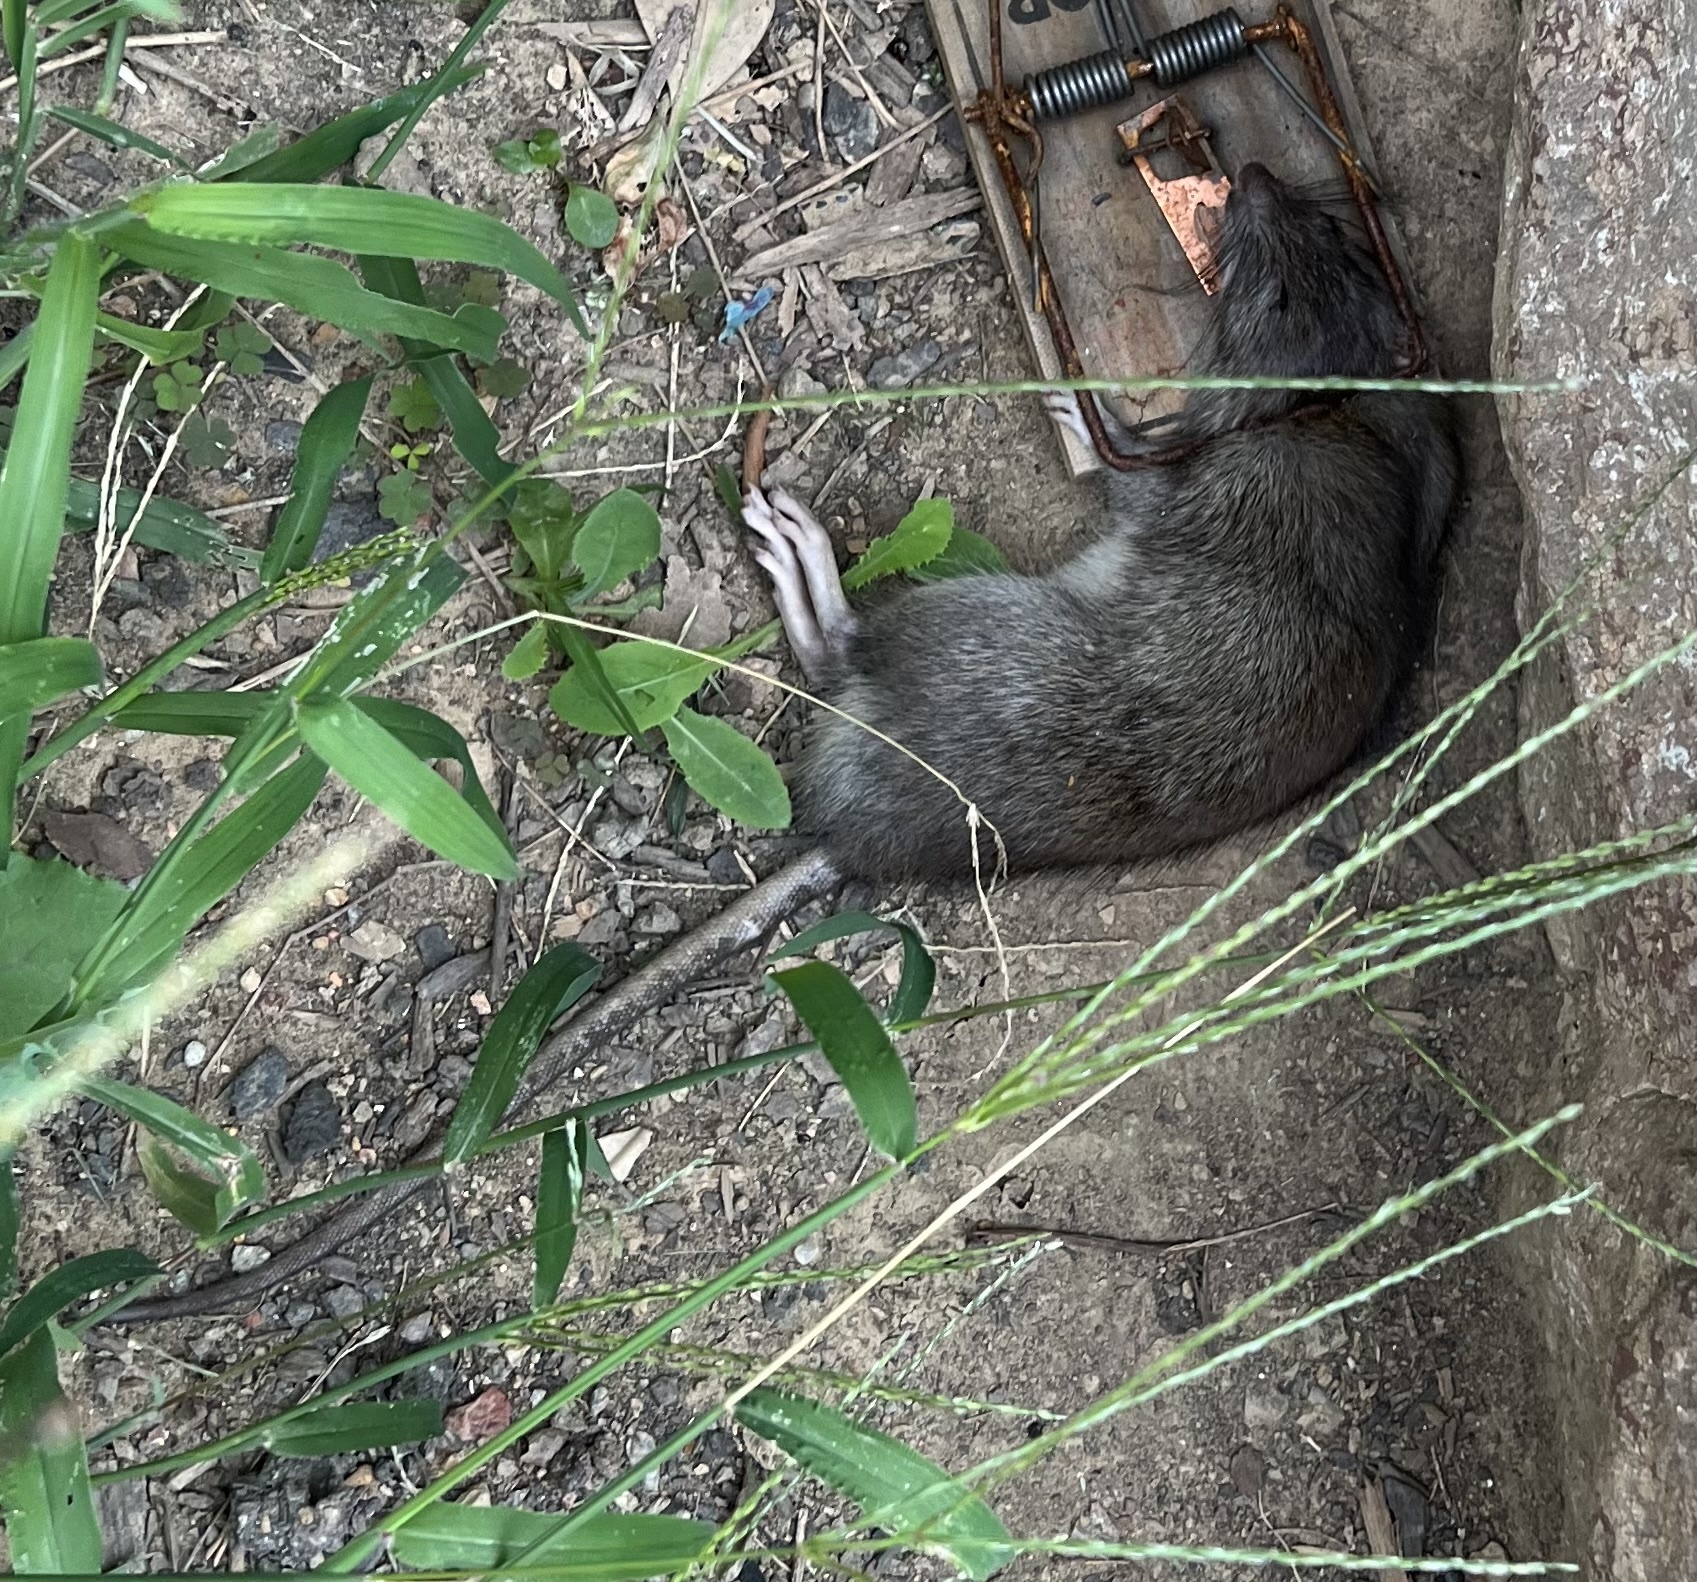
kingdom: Animalia
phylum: Chordata
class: Mammalia
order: Rodentia
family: Muridae
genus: Rattus
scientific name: Rattus norvegicus
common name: Brown rat
